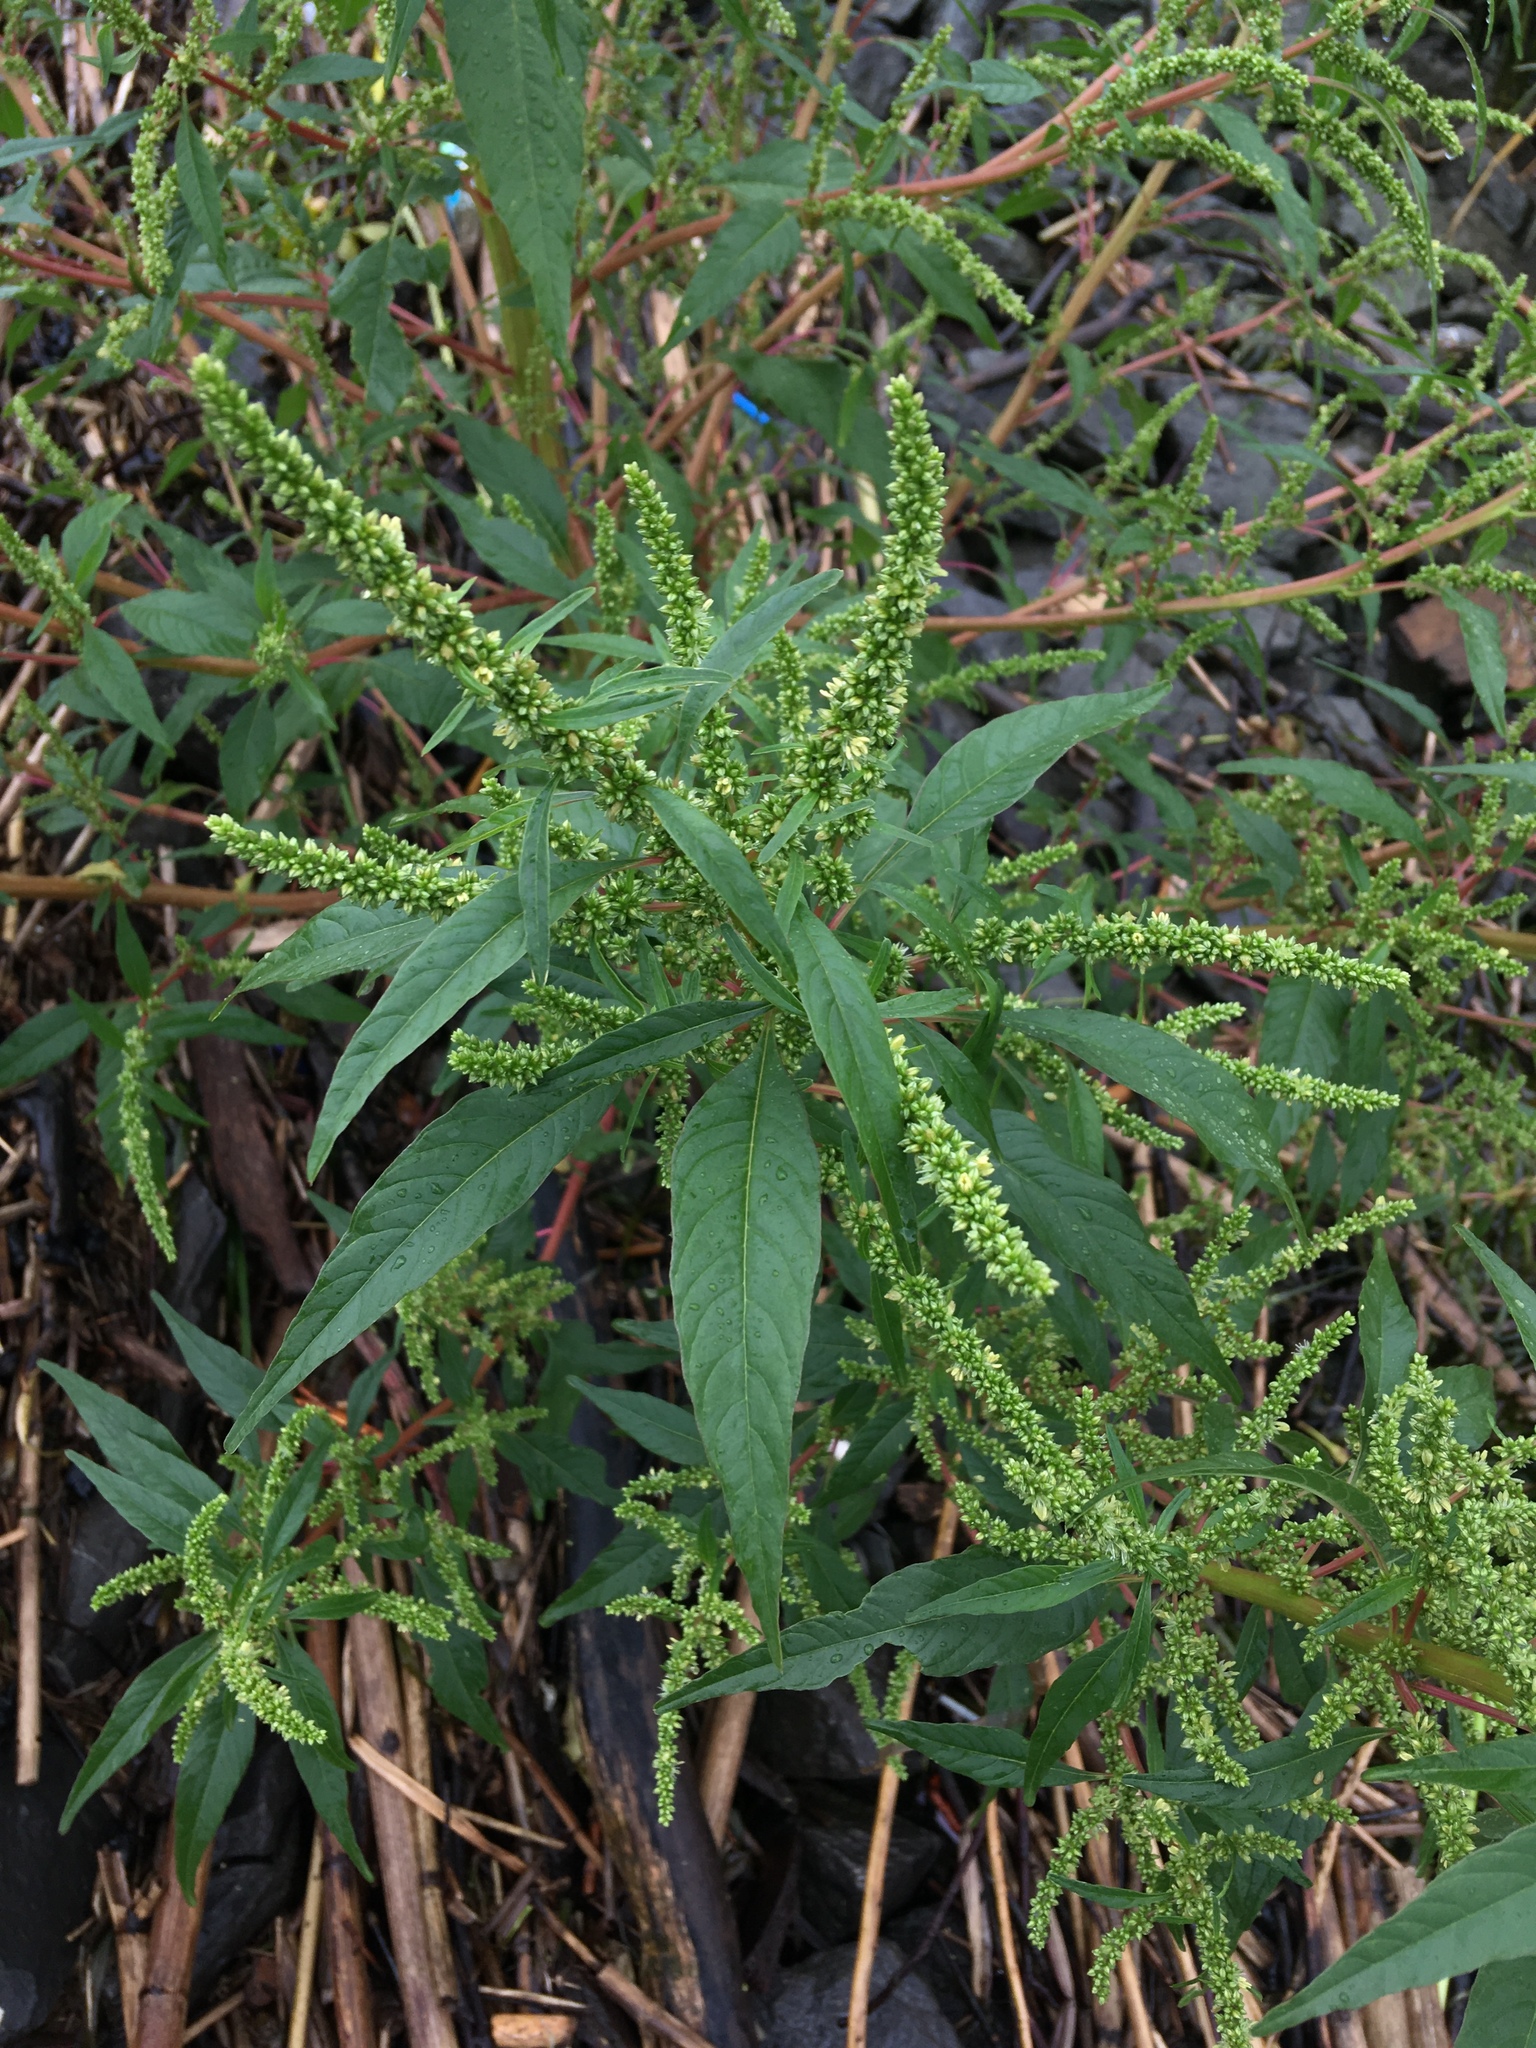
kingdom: Plantae
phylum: Tracheophyta
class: Magnoliopsida
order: Caryophyllales
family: Amaranthaceae
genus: Amaranthus
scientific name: Amaranthus cannabinus
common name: Salt-marsh water-hemp
